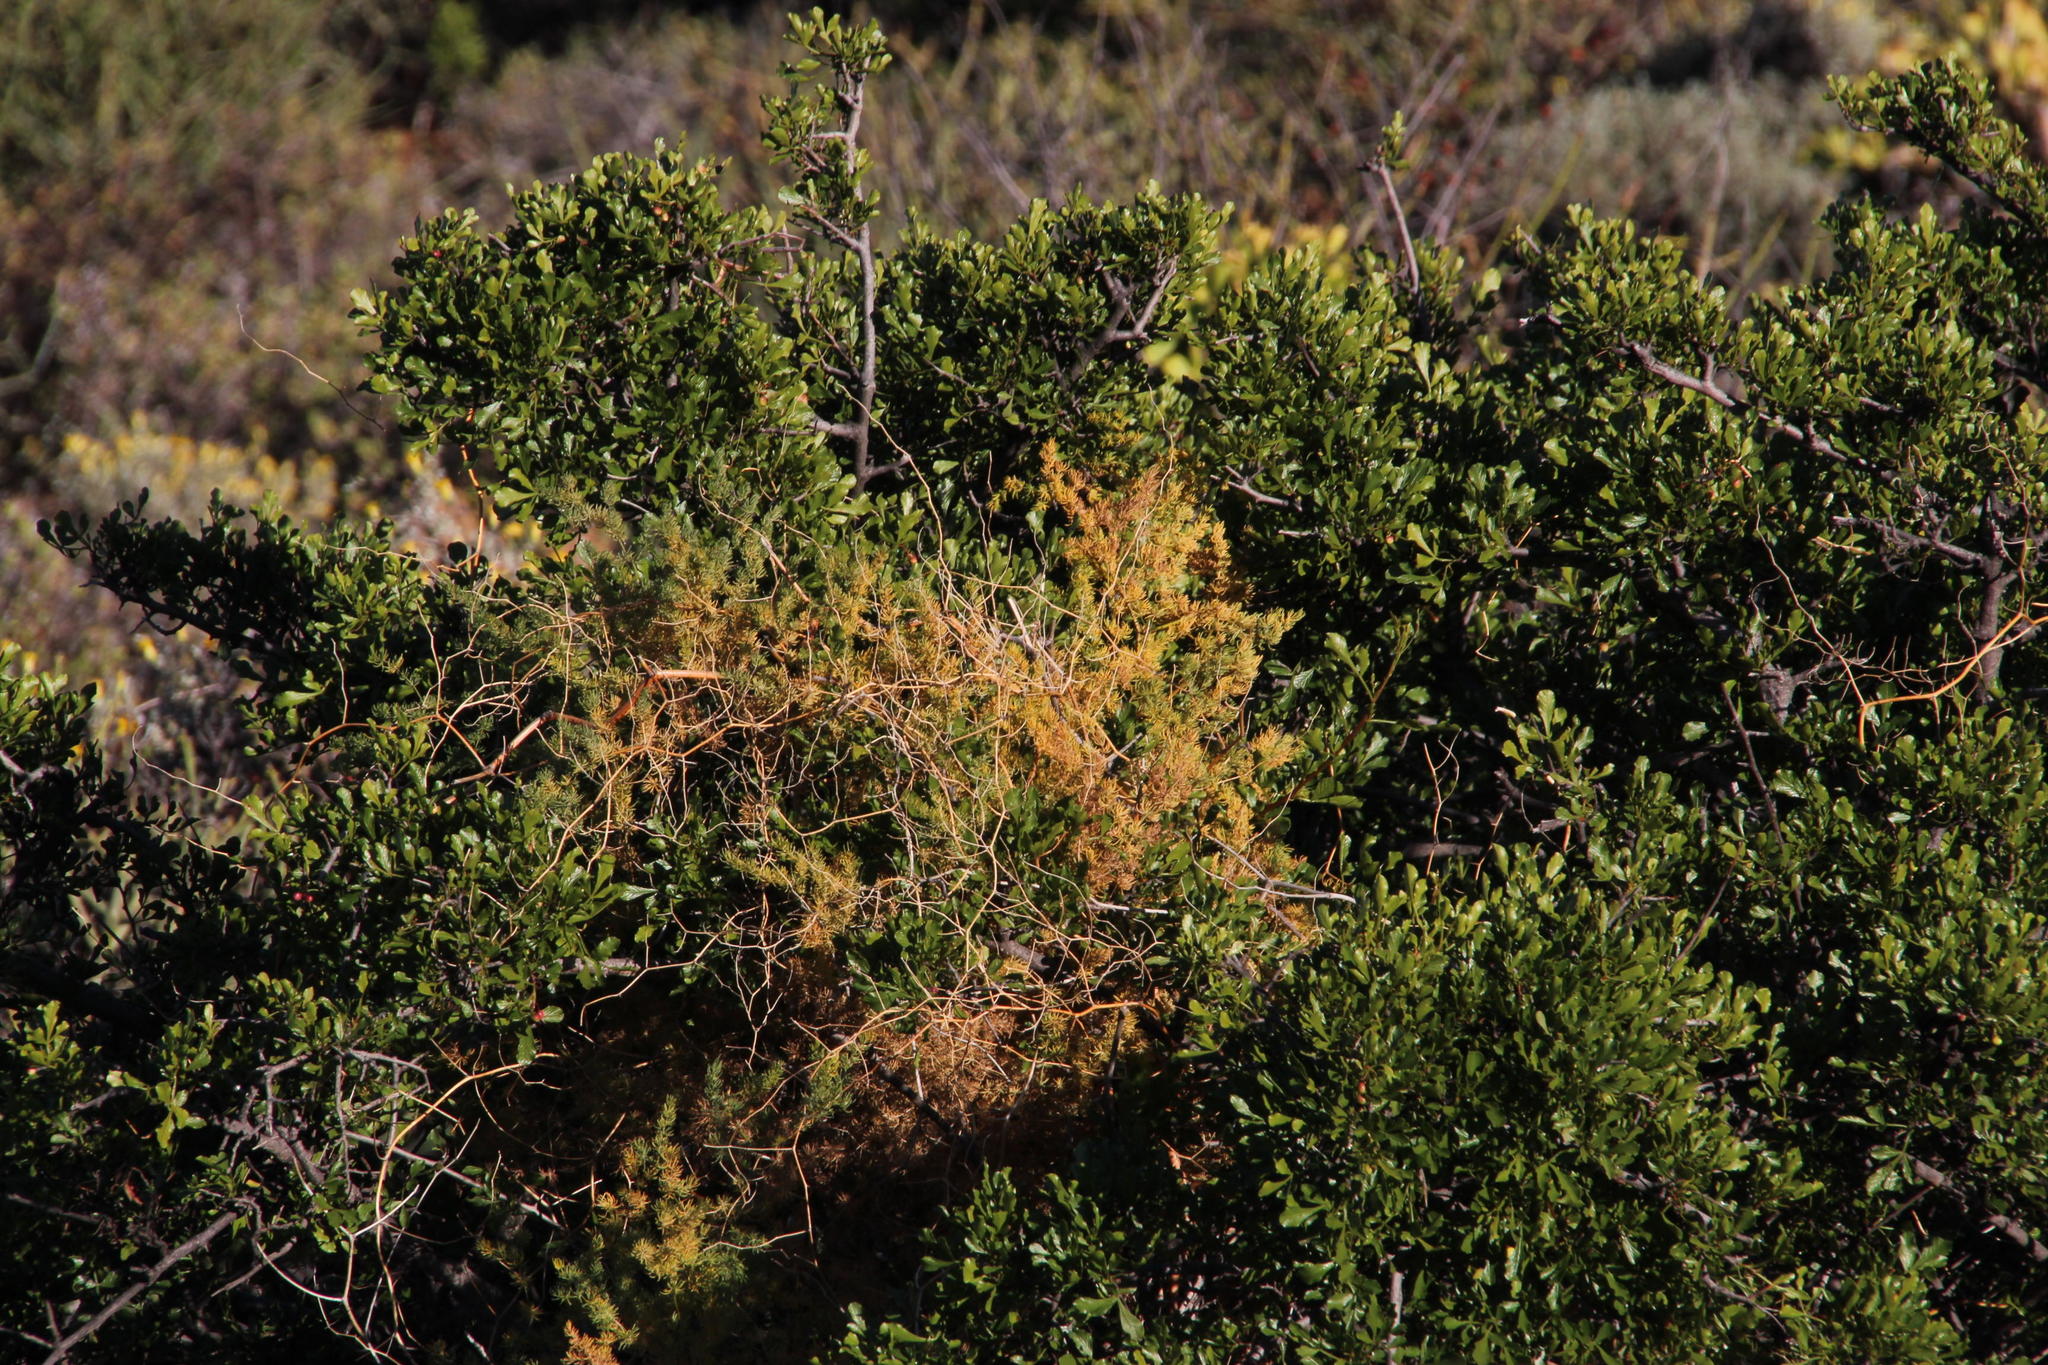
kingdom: Plantae
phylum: Tracheophyta
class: Liliopsida
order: Asparagales
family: Asparagaceae
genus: Asparagus
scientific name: Asparagus mollis
